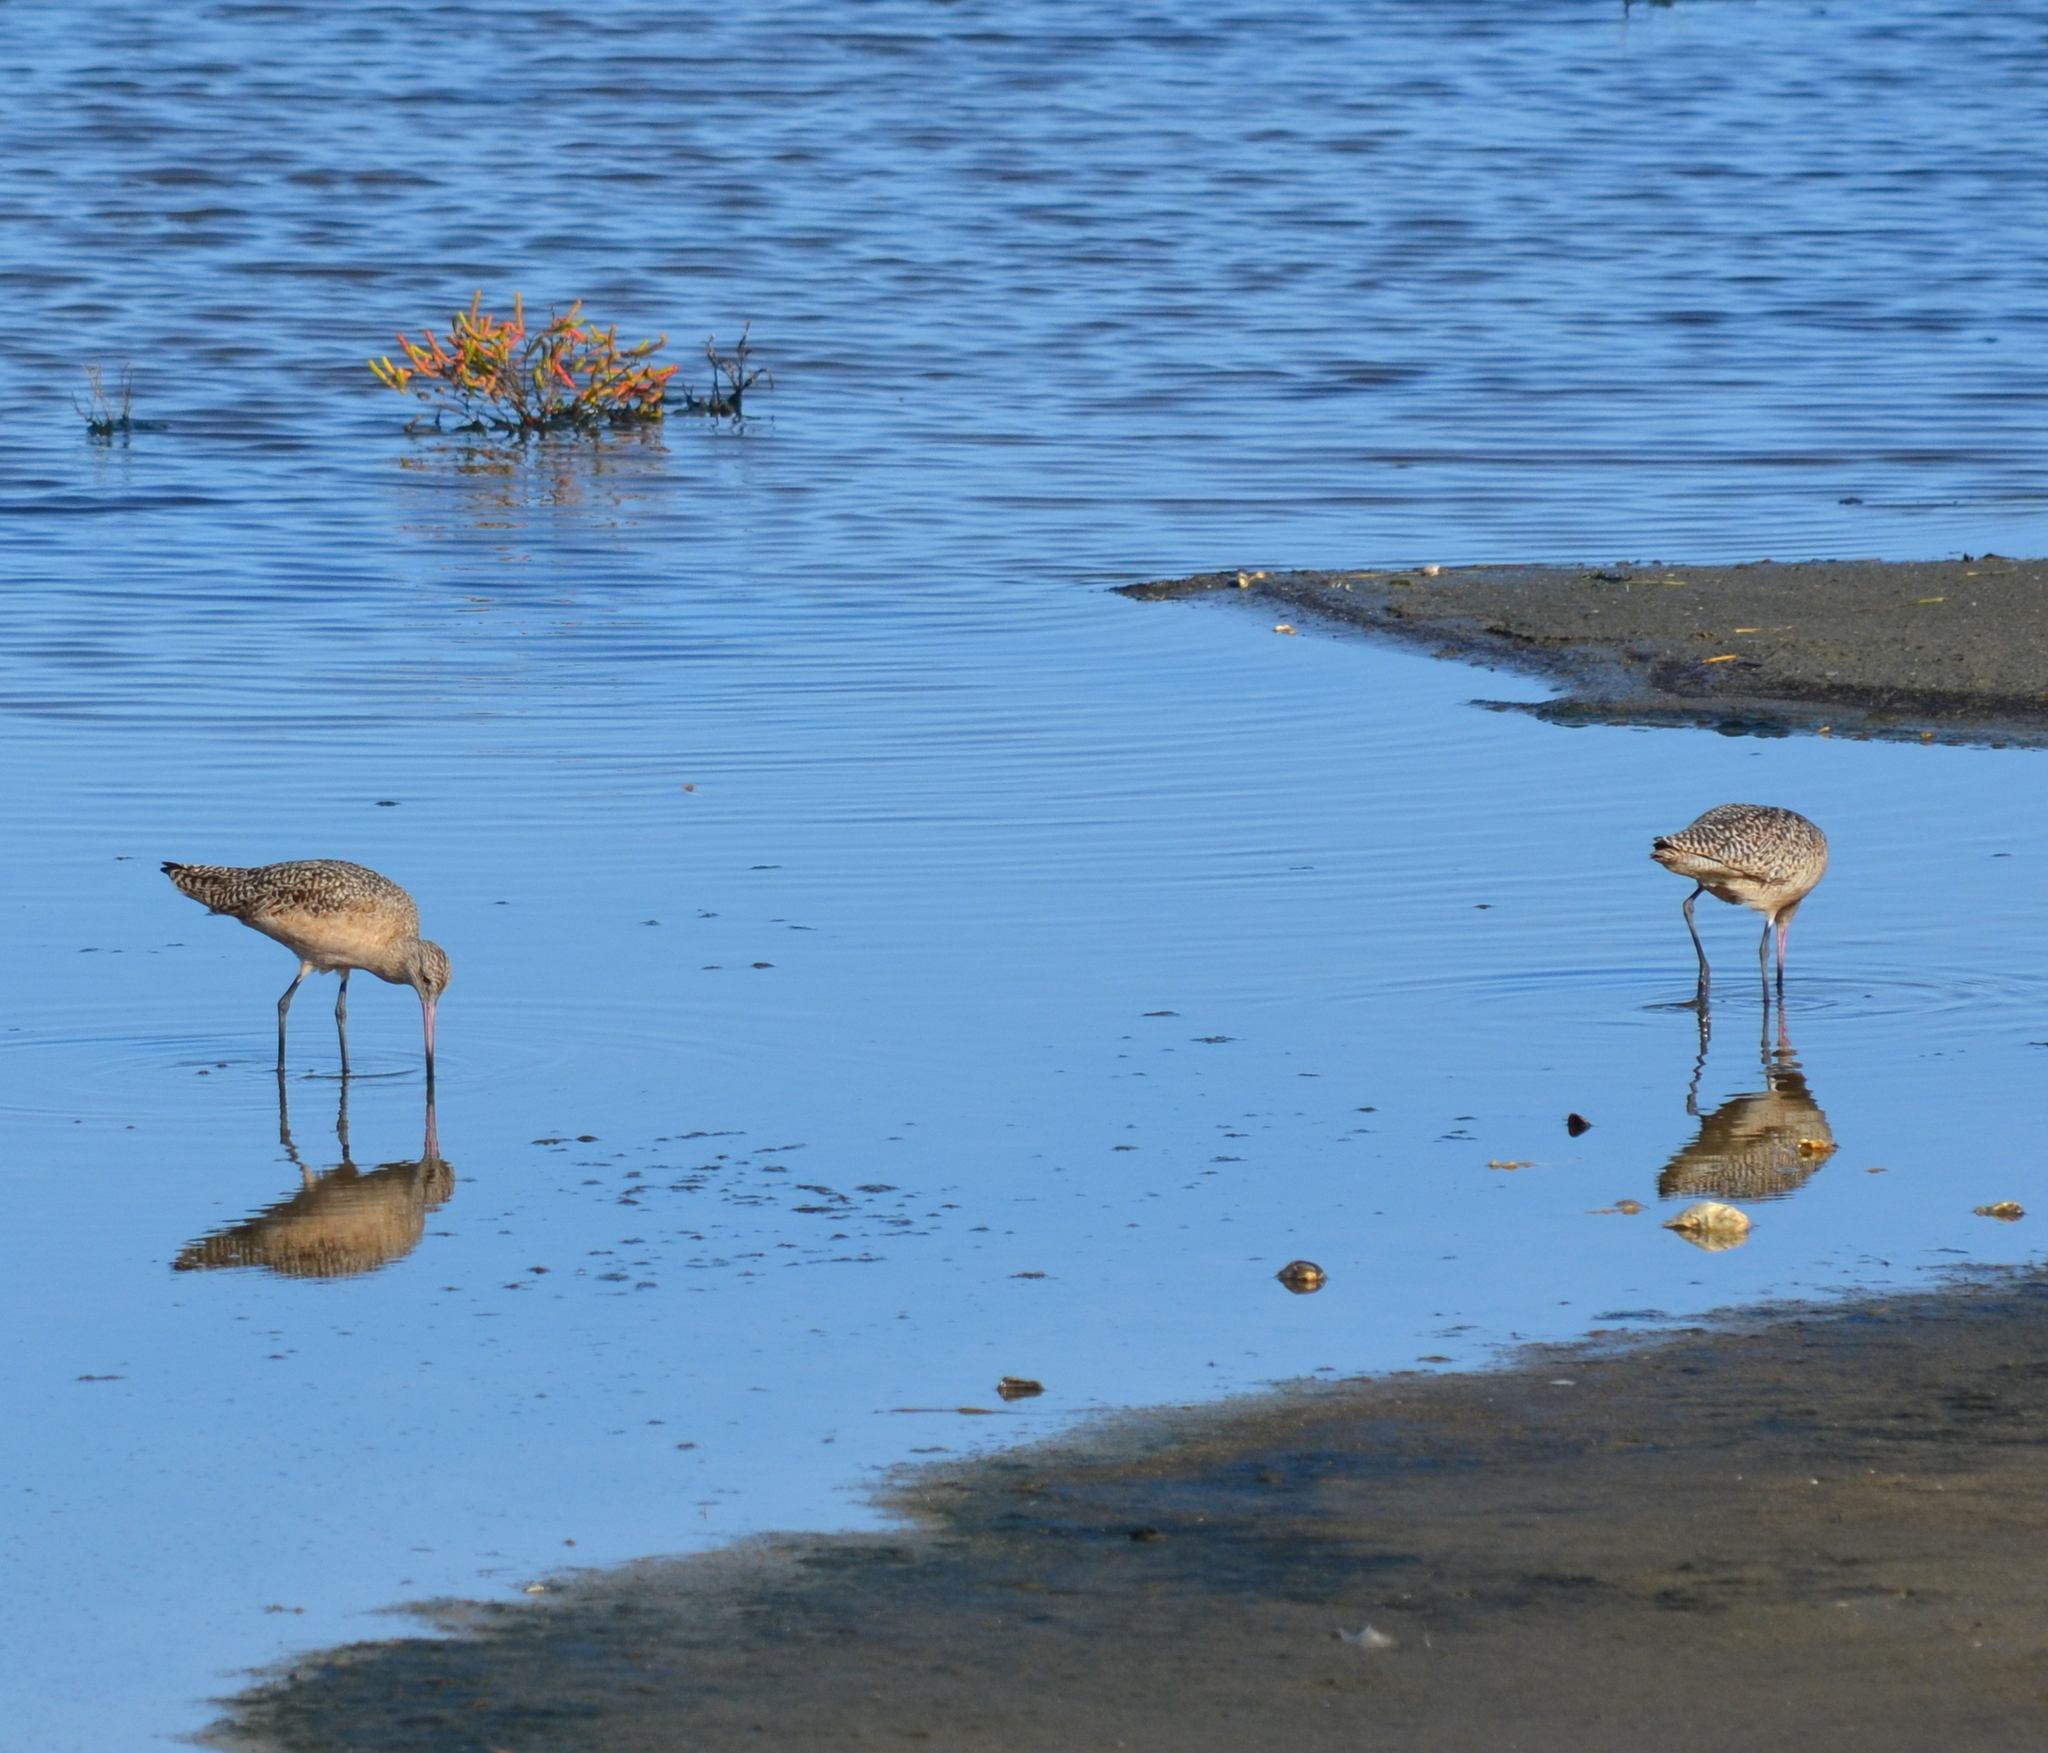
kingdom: Animalia
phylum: Chordata
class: Aves
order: Charadriiformes
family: Scolopacidae
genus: Limosa
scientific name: Limosa fedoa
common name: Marbled godwit
